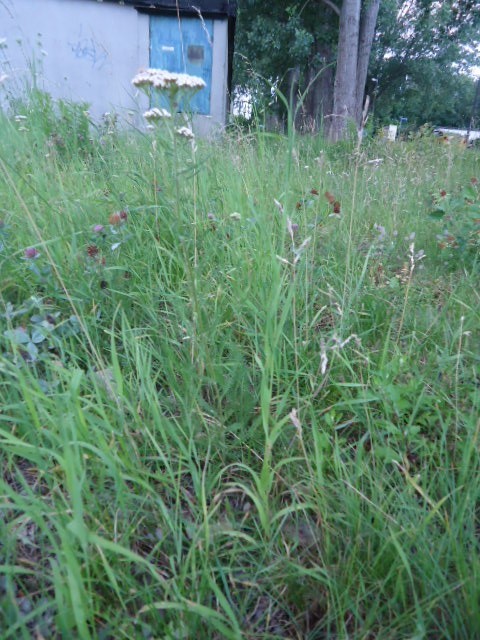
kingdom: Plantae
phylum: Tracheophyta
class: Magnoliopsida
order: Asterales
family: Asteraceae
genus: Achillea
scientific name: Achillea millefolium
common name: Yarrow
